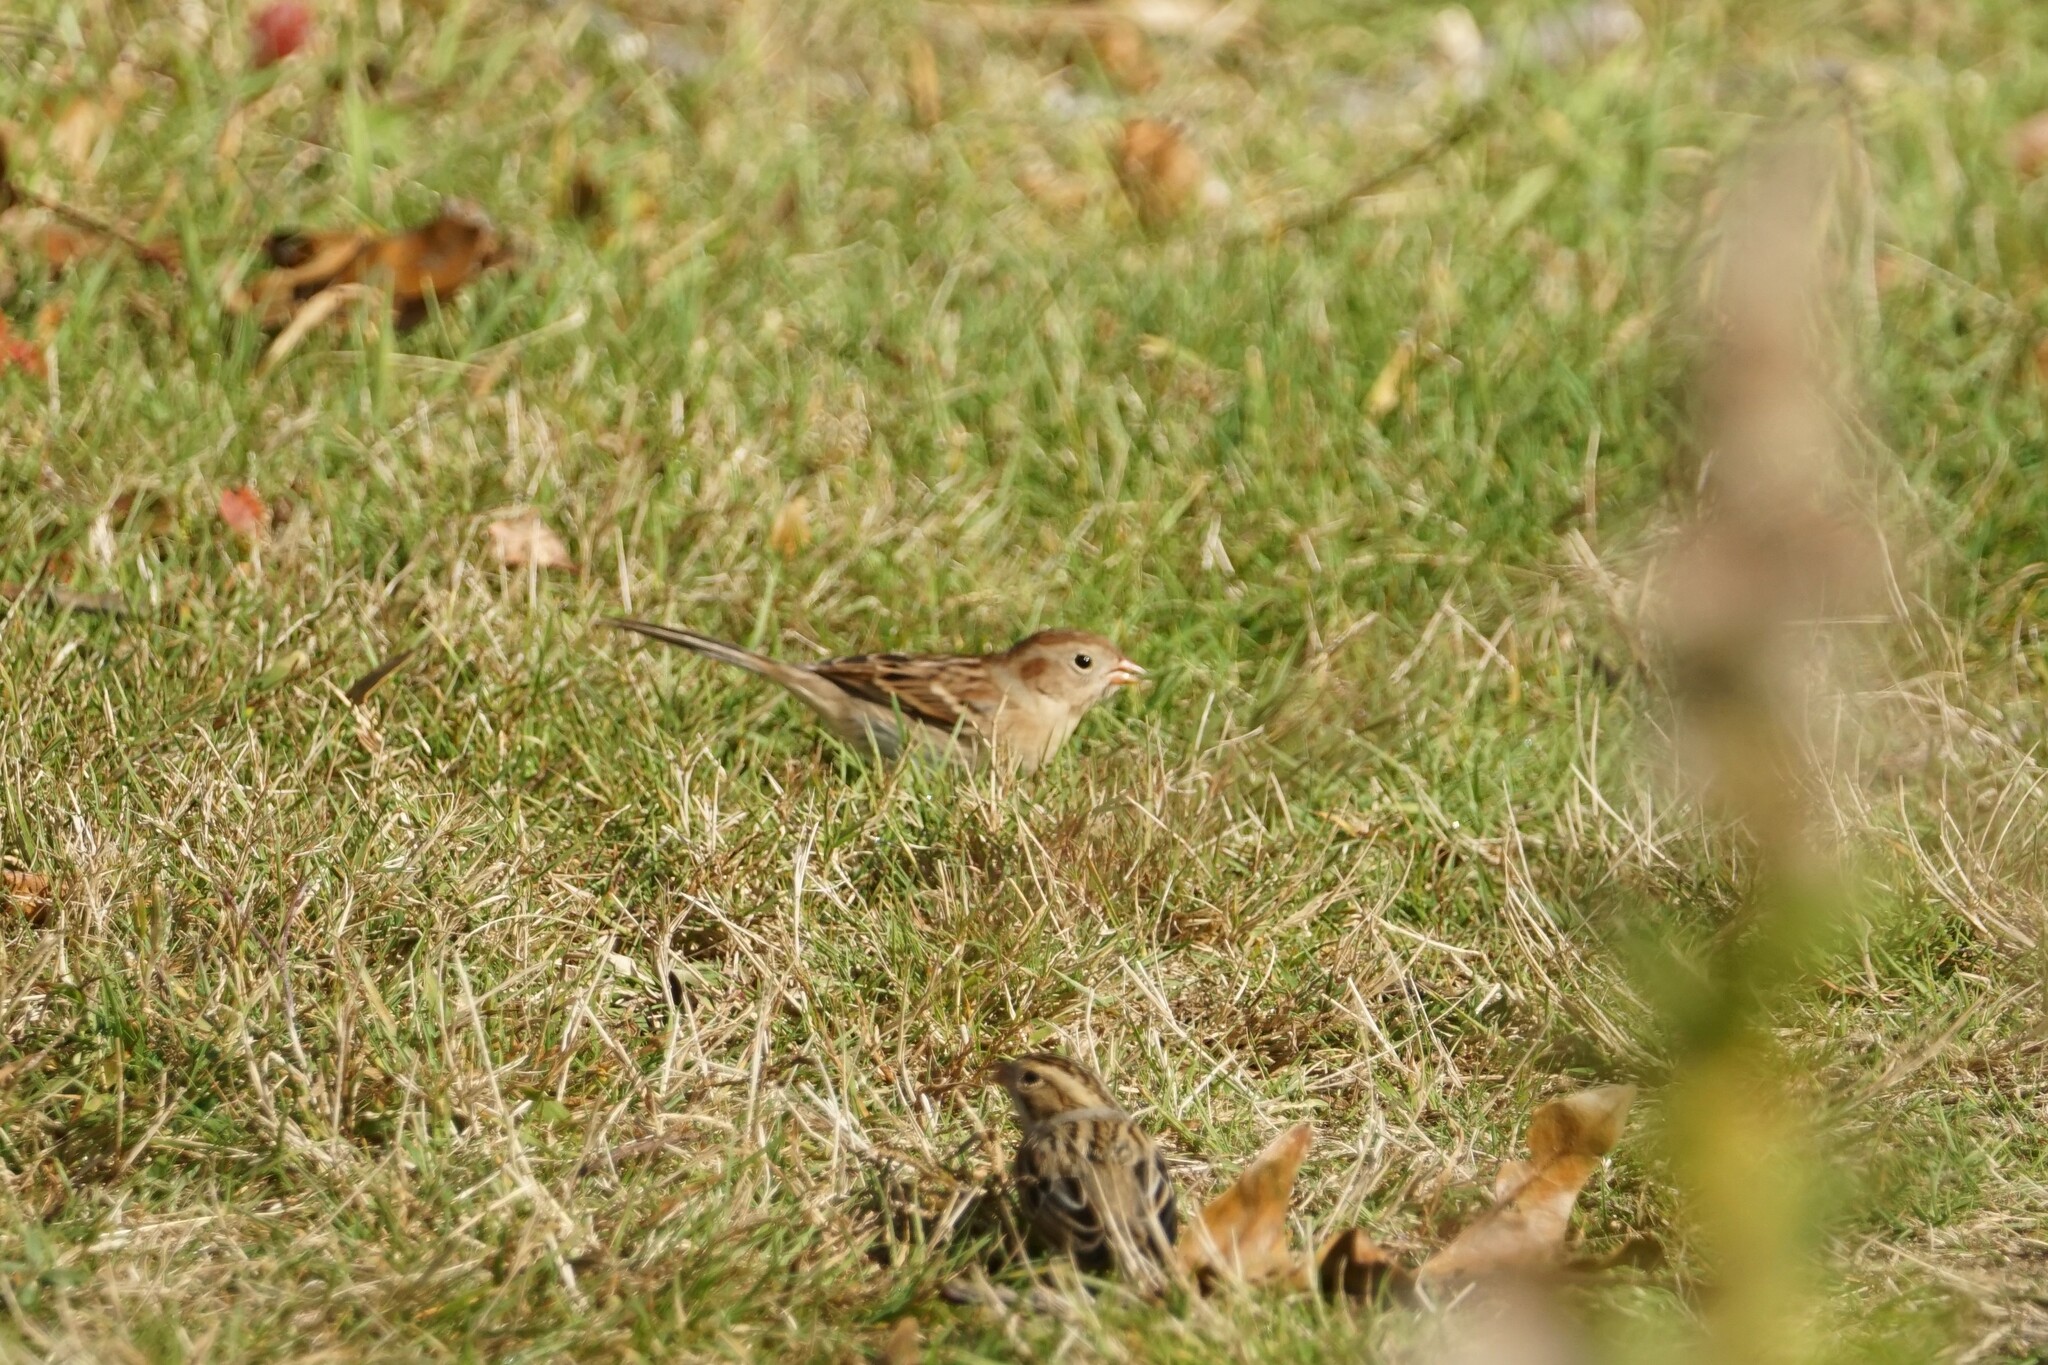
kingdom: Animalia
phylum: Chordata
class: Aves
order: Passeriformes
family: Passerellidae
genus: Spizella
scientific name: Spizella pusilla
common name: Field sparrow
